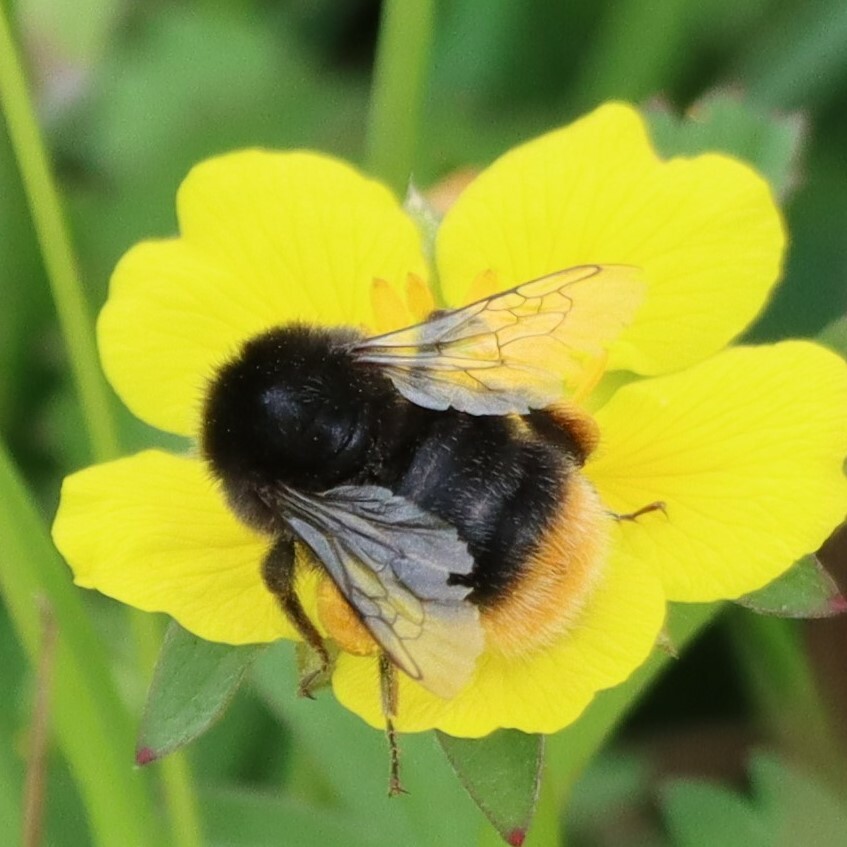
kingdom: Animalia
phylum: Arthropoda
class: Insecta
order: Hymenoptera
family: Apidae
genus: Bombus
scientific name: Bombus lapidarius
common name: Large red-tailed humble-bee
